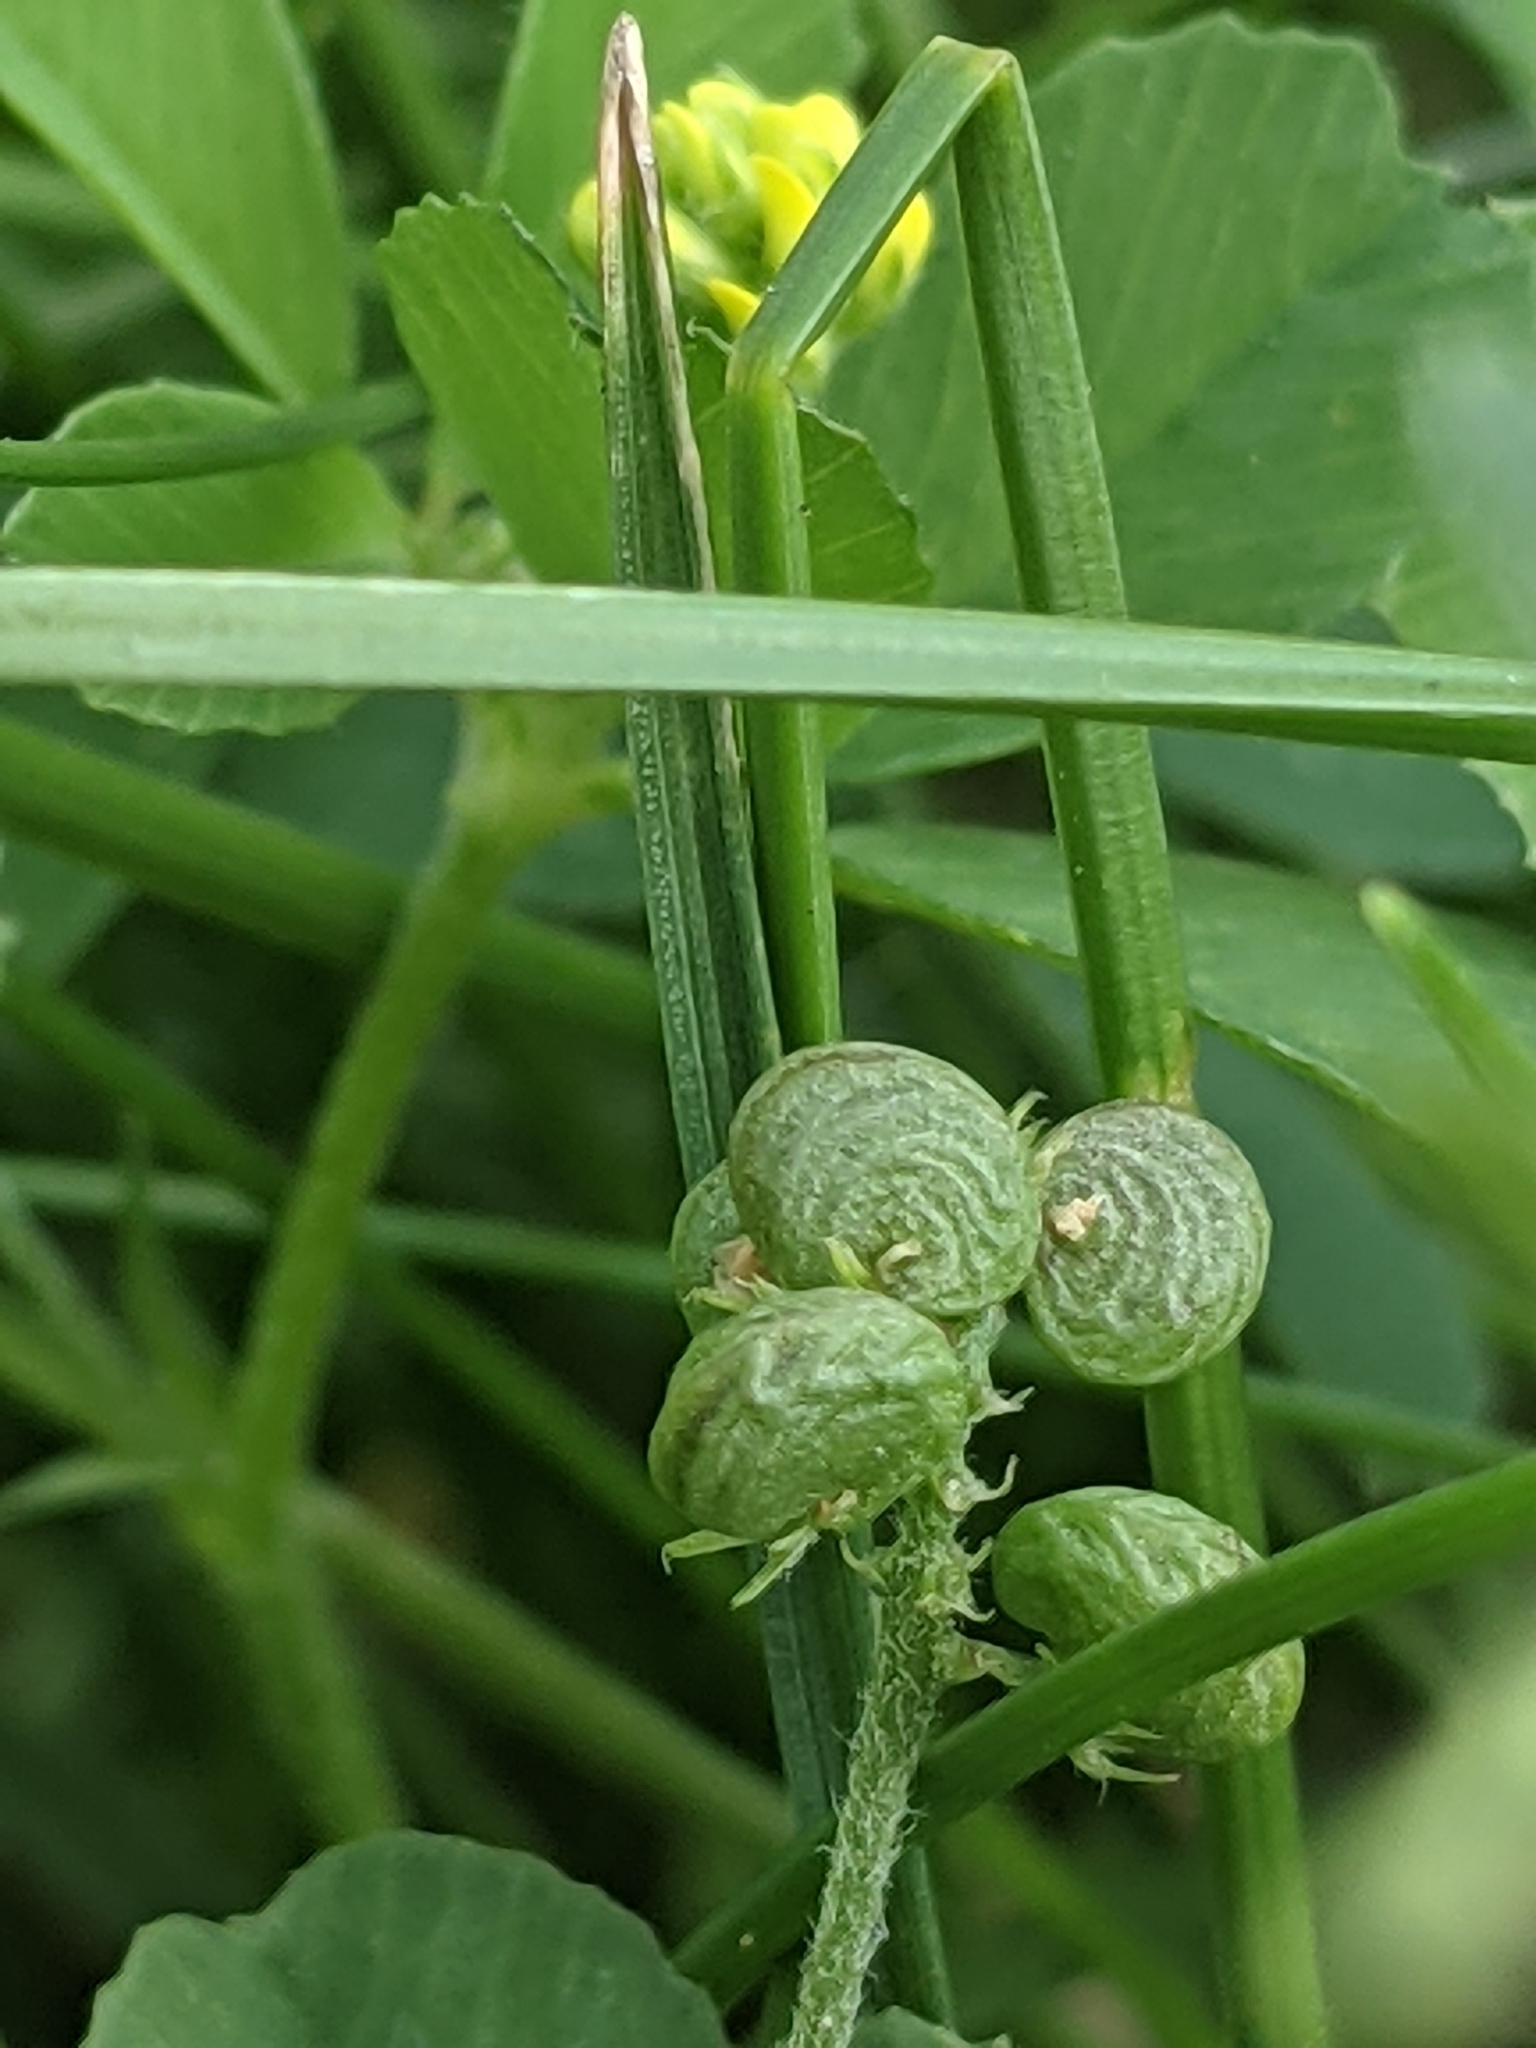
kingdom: Plantae
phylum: Tracheophyta
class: Magnoliopsida
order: Fabales
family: Fabaceae
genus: Medicago
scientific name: Medicago lupulina
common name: Black medick
